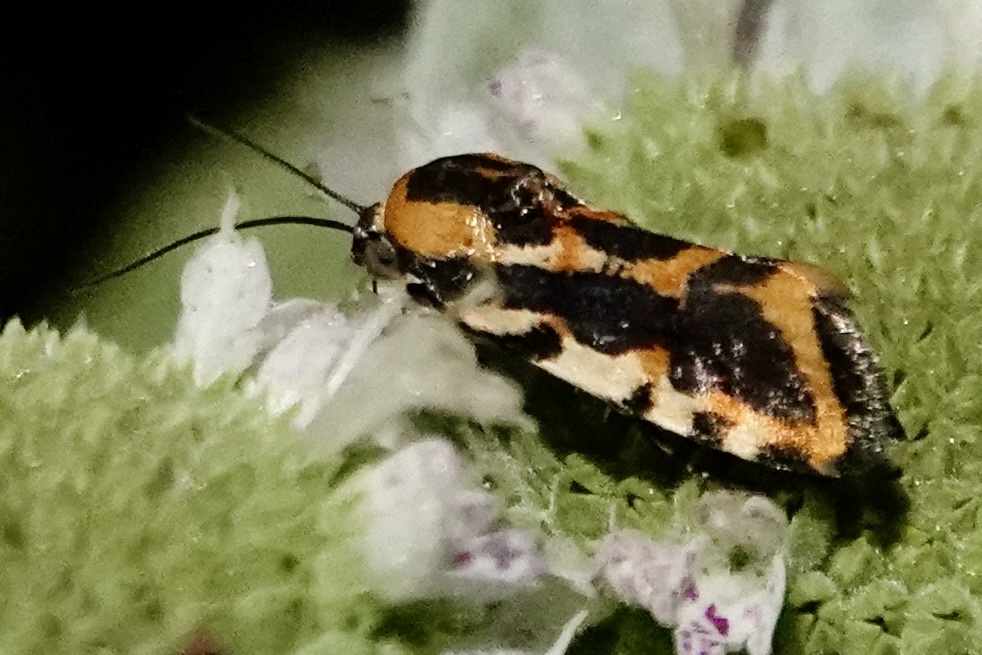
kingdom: Animalia
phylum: Arthropoda
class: Insecta
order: Lepidoptera
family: Noctuidae
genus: Acontia
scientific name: Acontia leo
